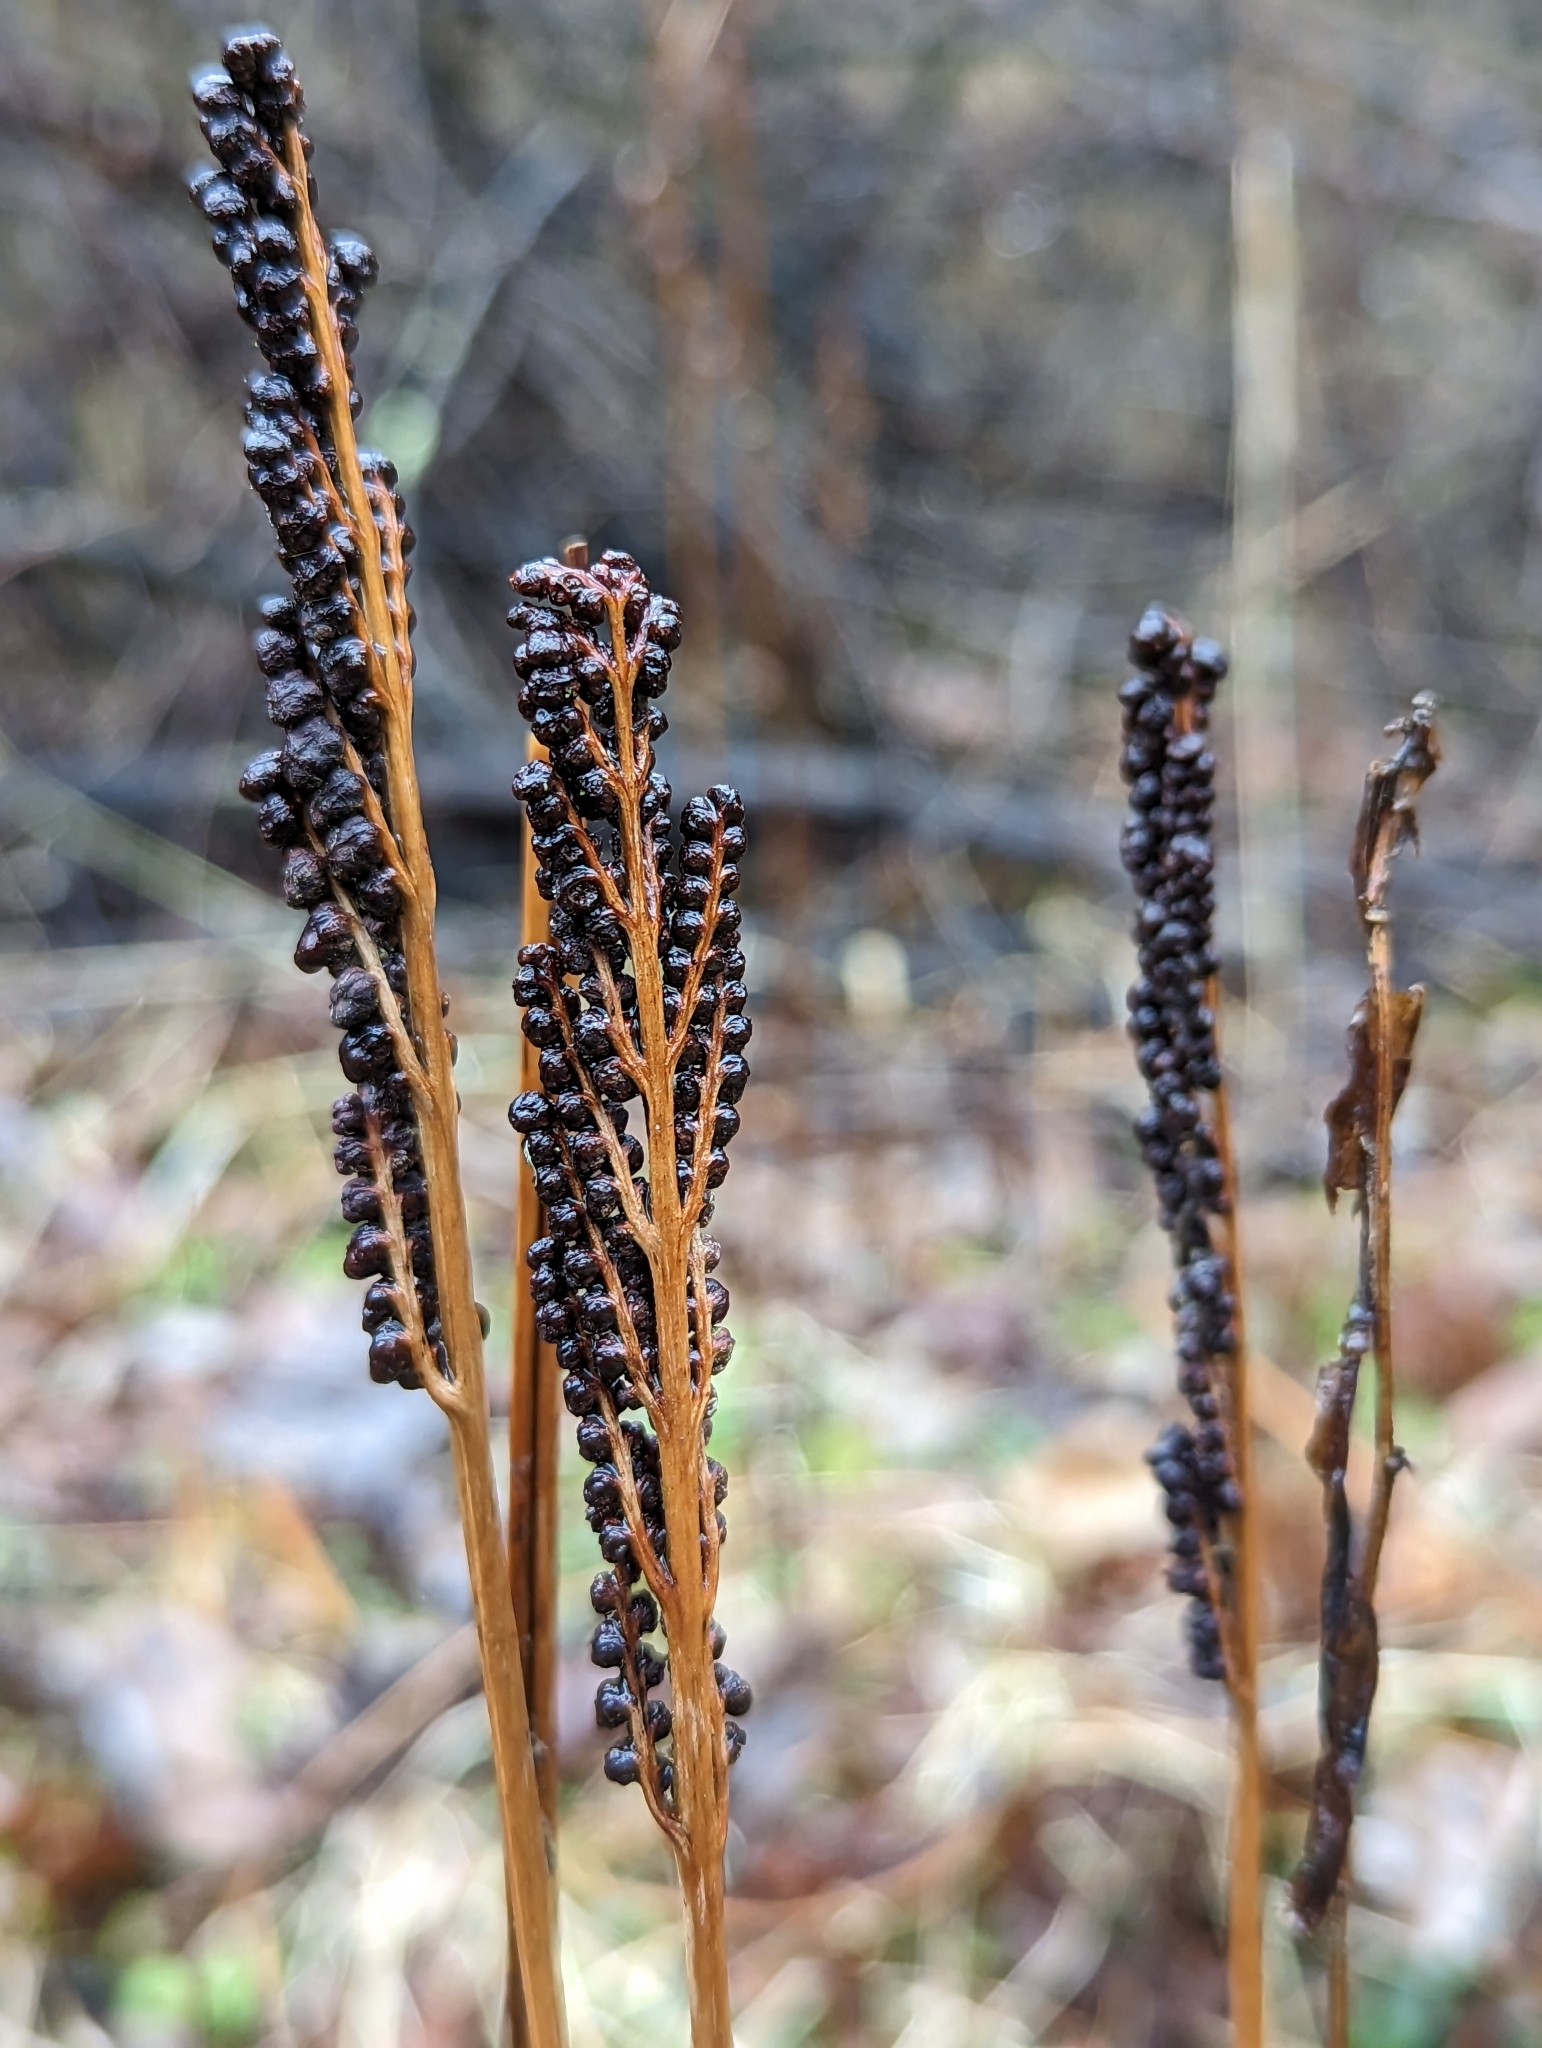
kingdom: Plantae
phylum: Tracheophyta
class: Polypodiopsida
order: Polypodiales
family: Onocleaceae
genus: Onoclea
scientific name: Onoclea sensibilis
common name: Sensitive fern
